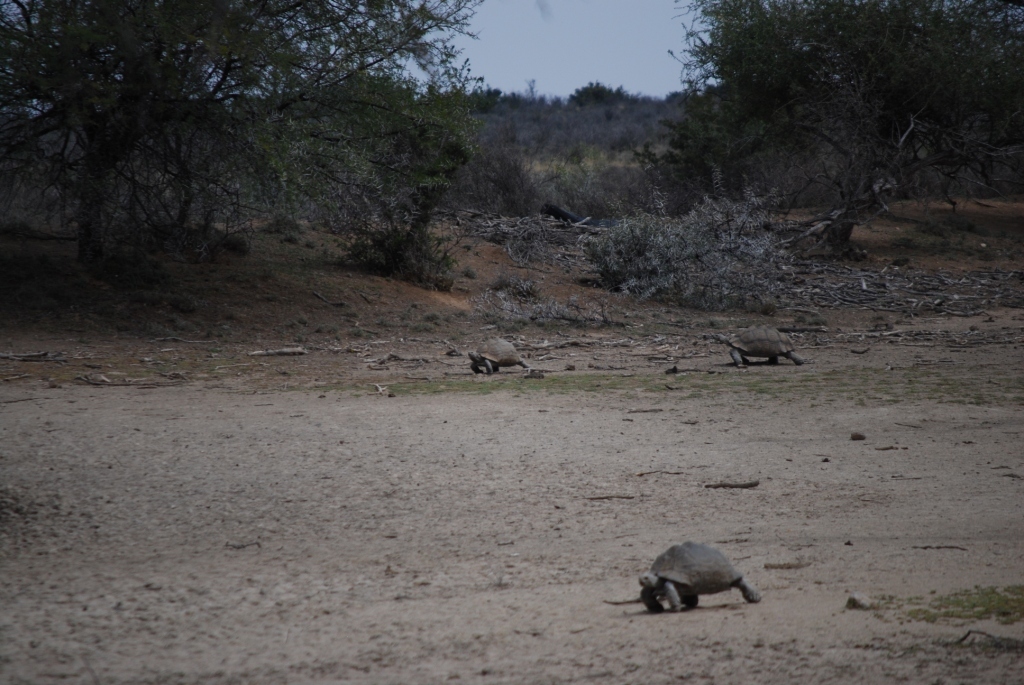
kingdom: Animalia
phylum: Chordata
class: Testudines
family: Testudinidae
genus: Stigmochelys
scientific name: Stigmochelys pardalis
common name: Leopard tortoise
